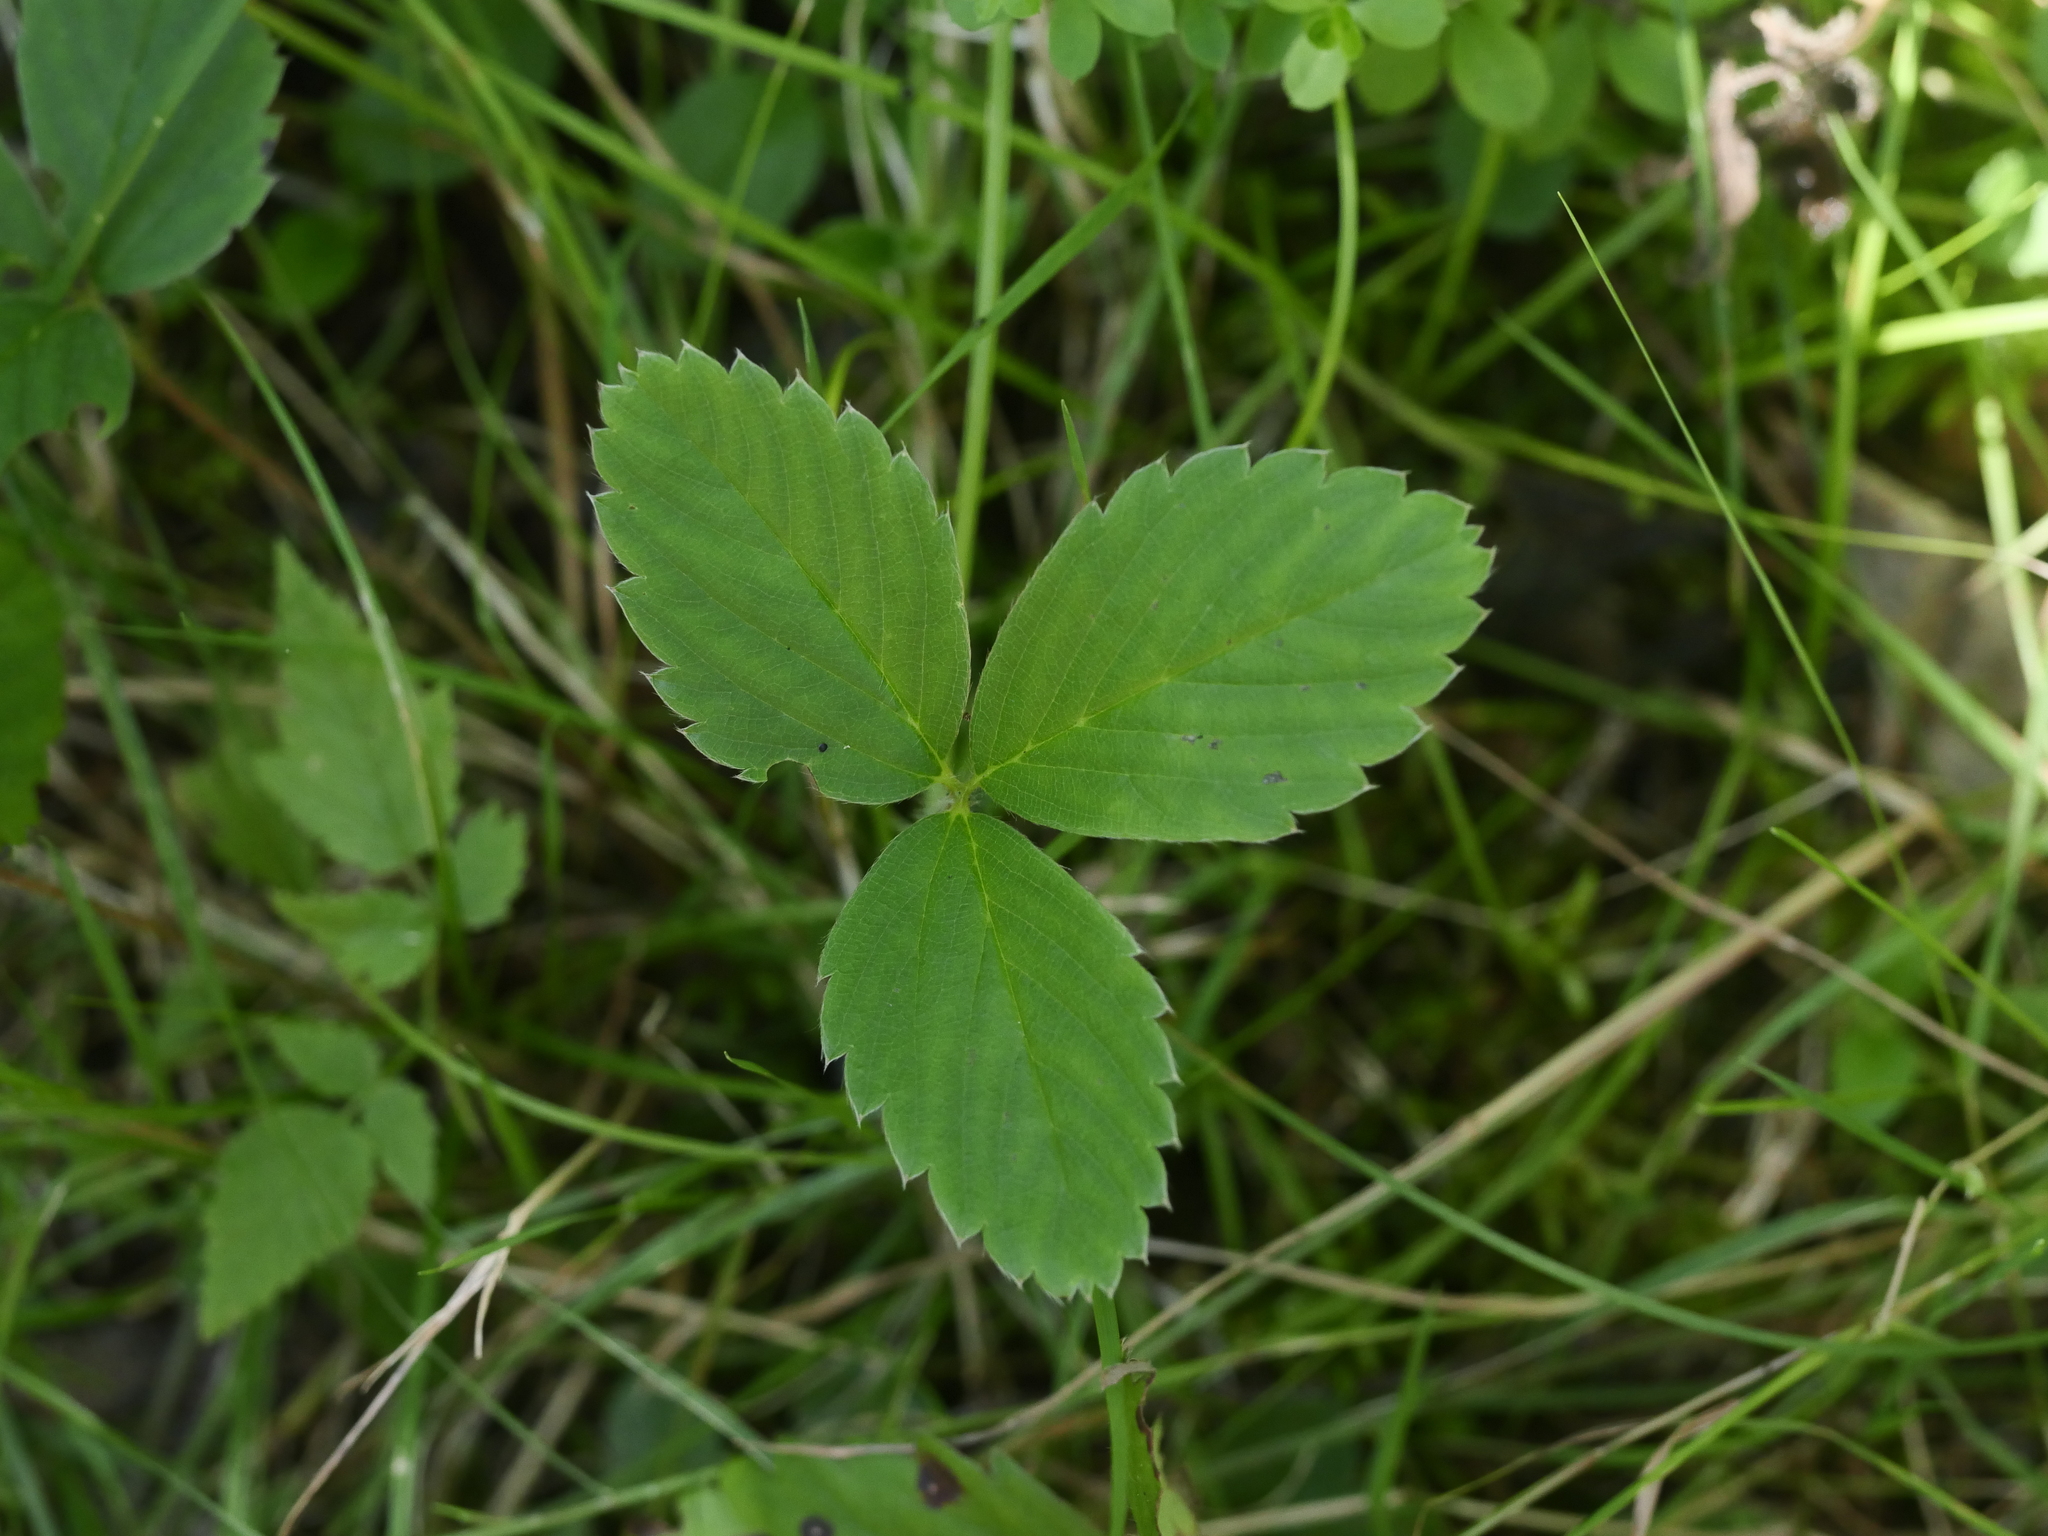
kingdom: Plantae
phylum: Tracheophyta
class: Magnoliopsida
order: Rosales
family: Rosaceae
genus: Fragaria
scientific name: Fragaria virginiana
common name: Thickleaved wild strawberry
